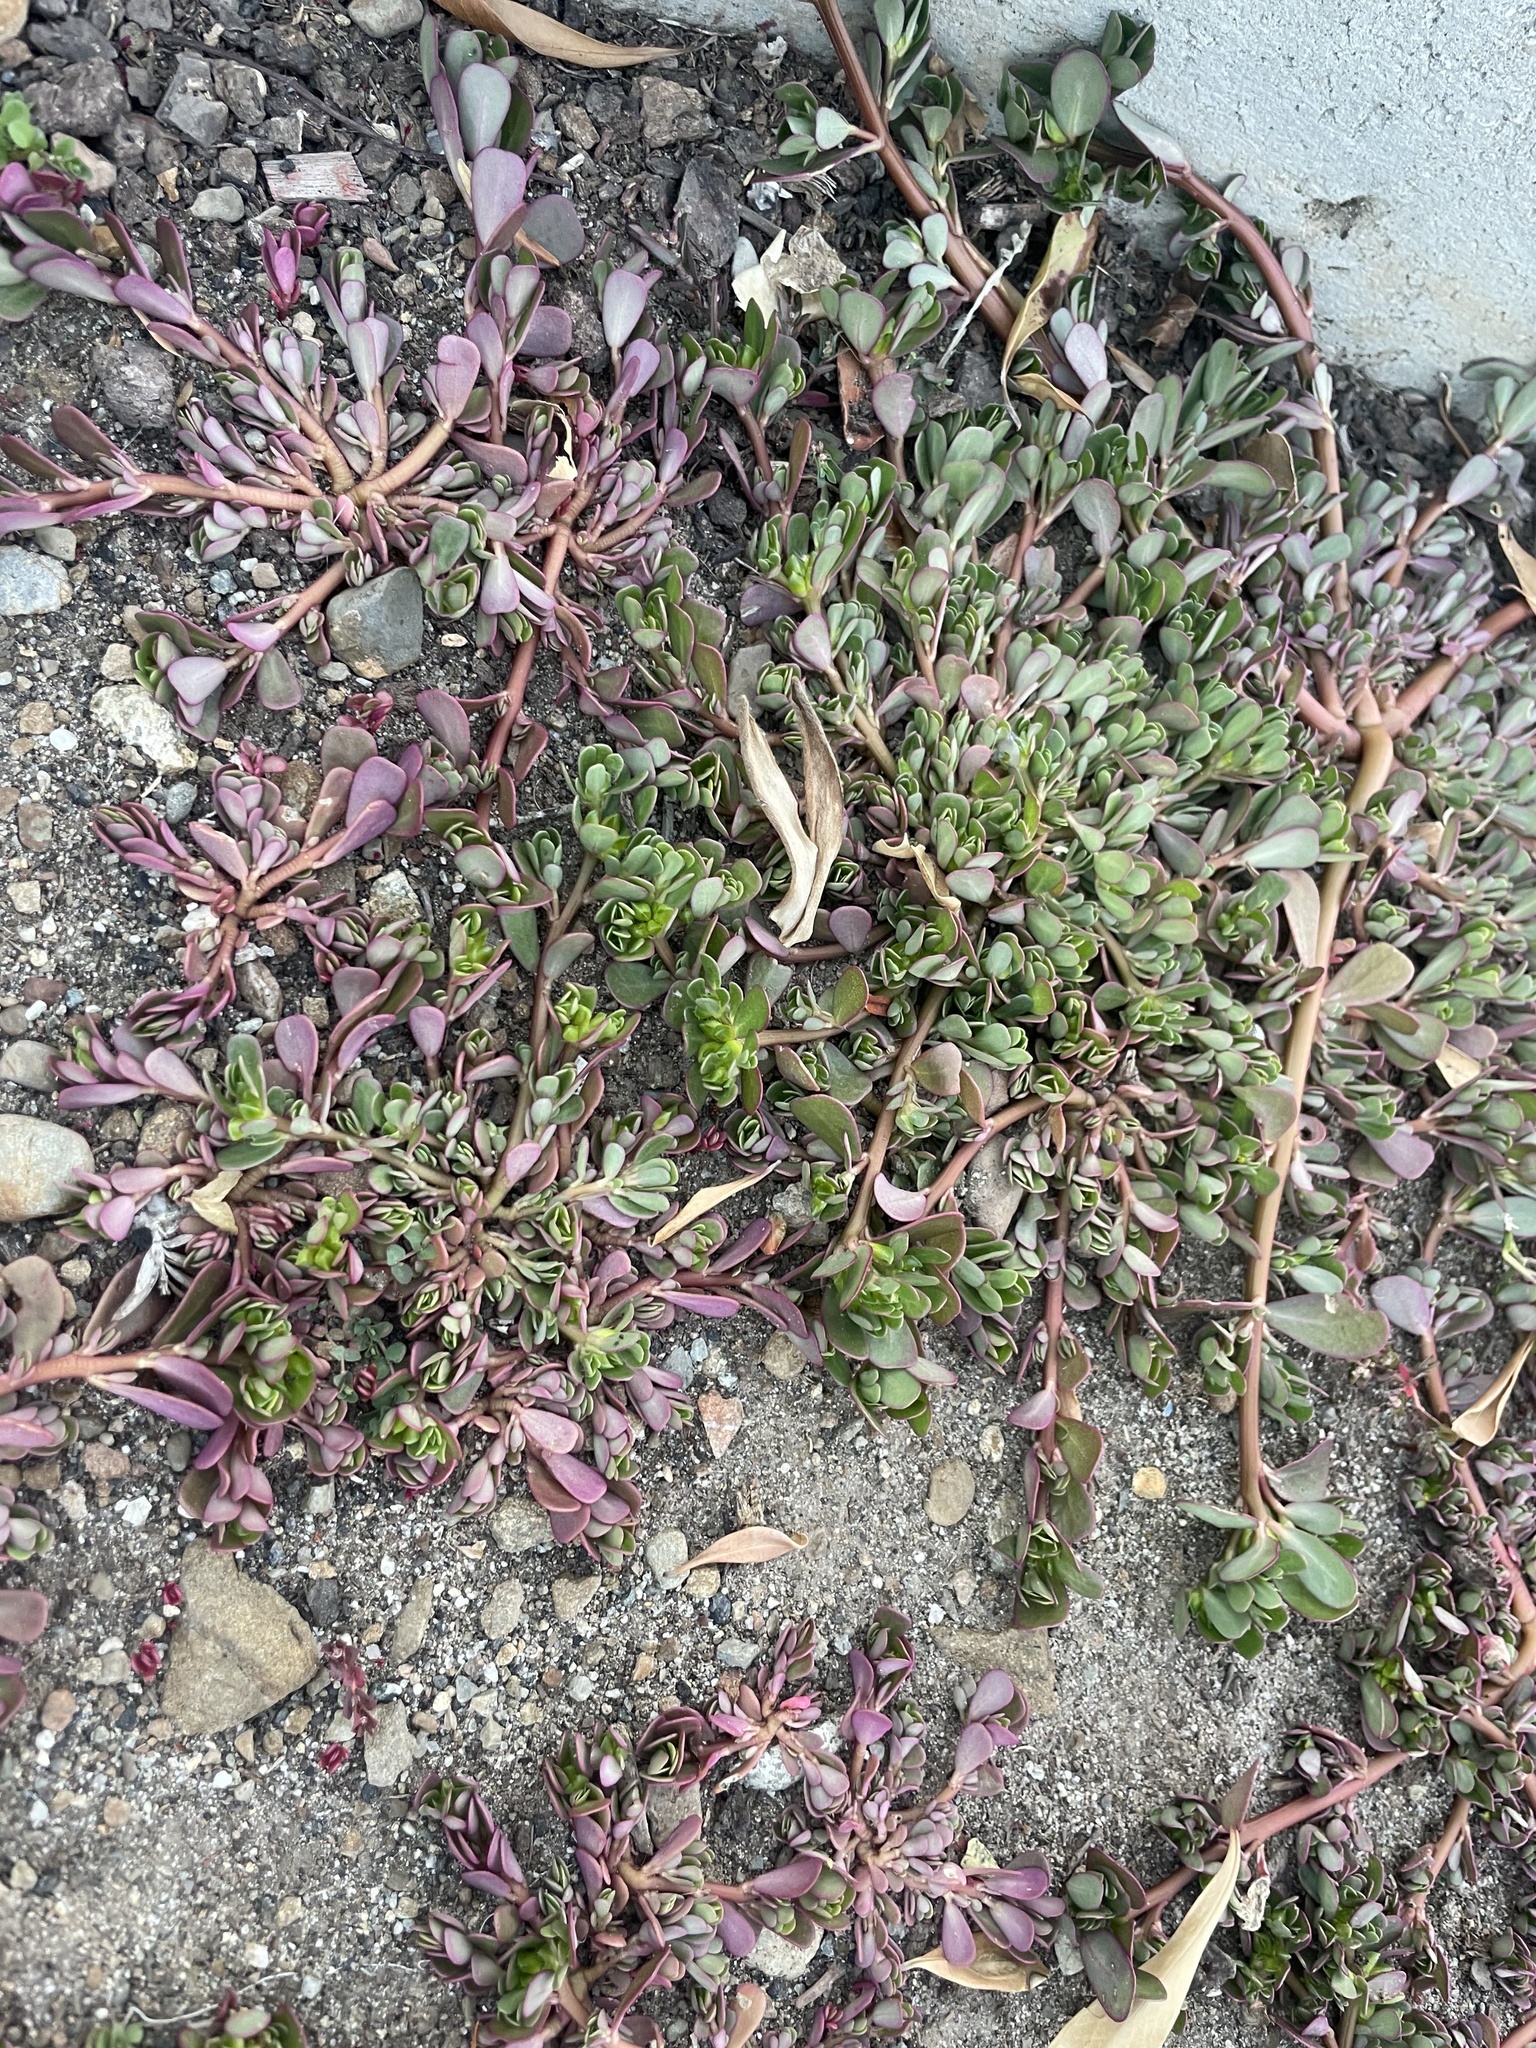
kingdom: Plantae
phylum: Tracheophyta
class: Magnoliopsida
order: Caryophyllales
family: Portulacaceae
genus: Portulaca
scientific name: Portulaca oleracea
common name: Common purslane
